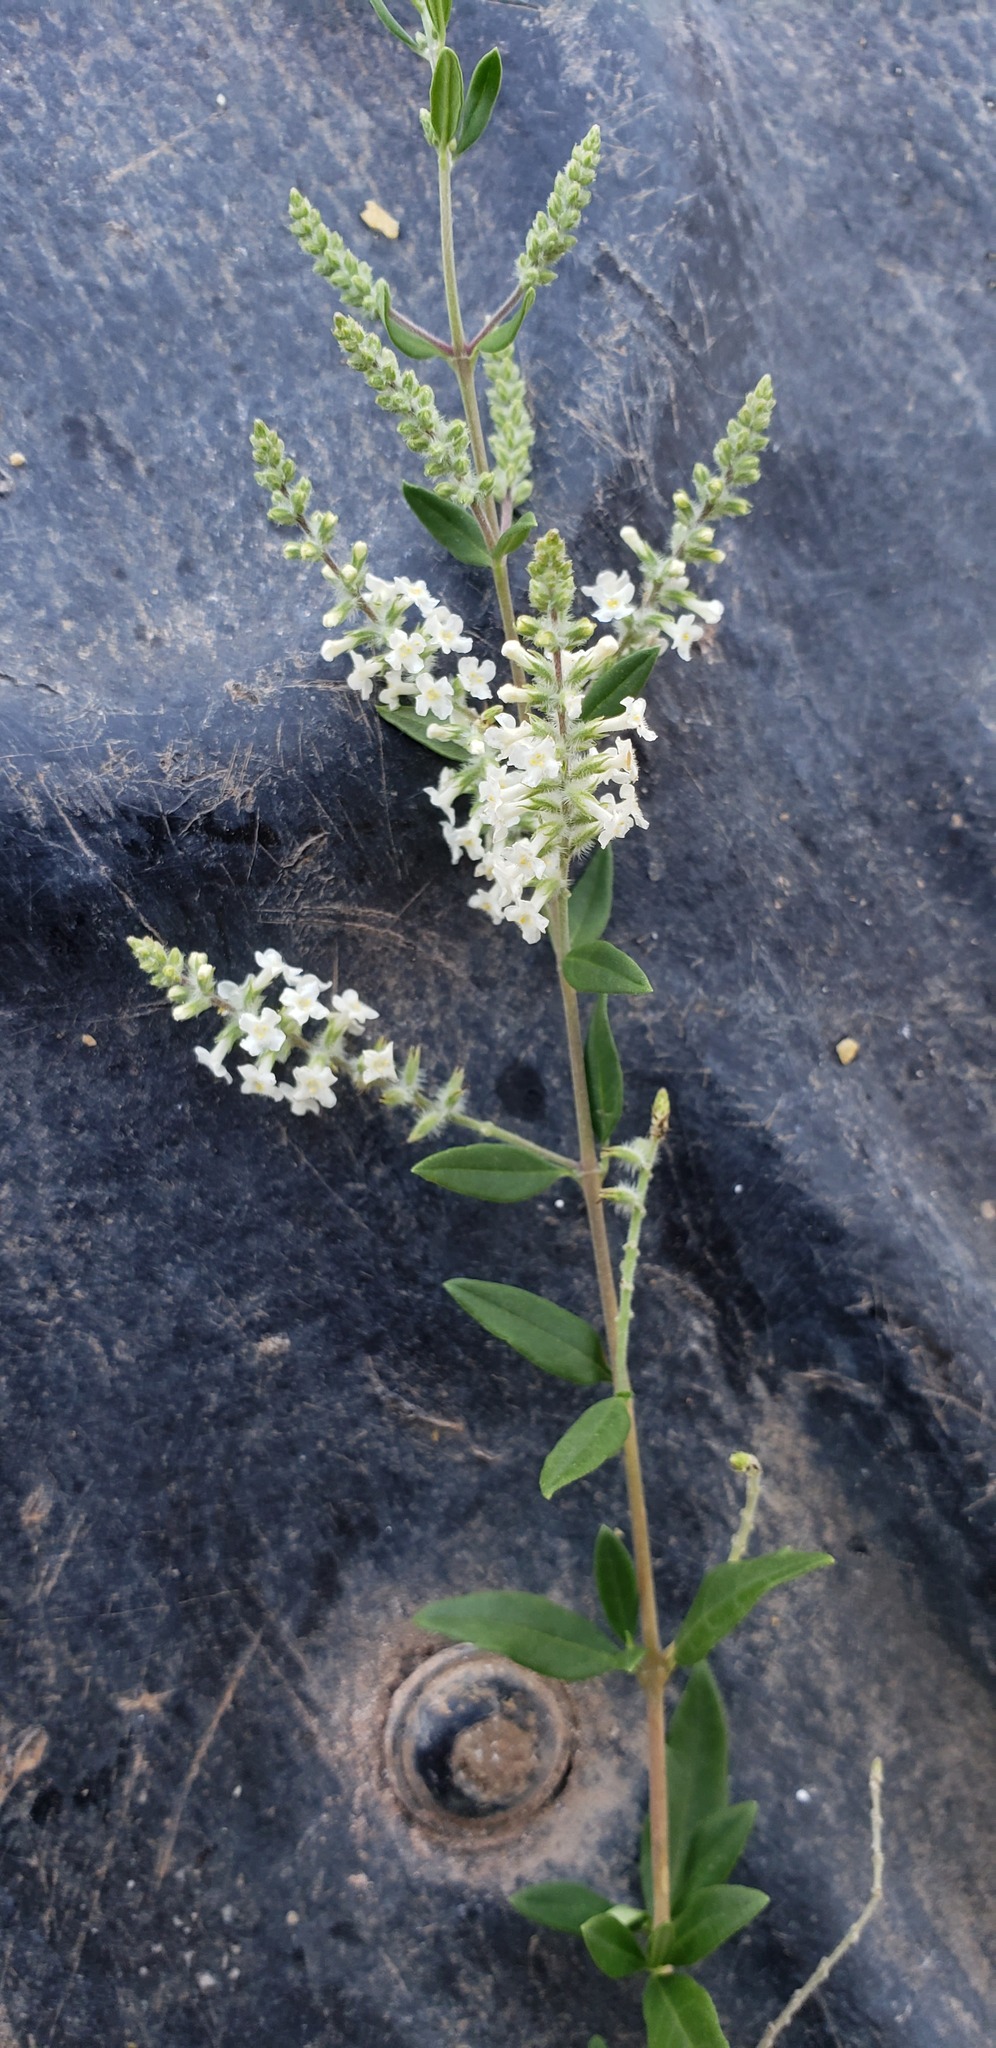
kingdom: Plantae
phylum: Tracheophyta
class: Magnoliopsida
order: Lamiales
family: Verbenaceae
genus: Aloysia
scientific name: Aloysia gratissima
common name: Common bee-brush
